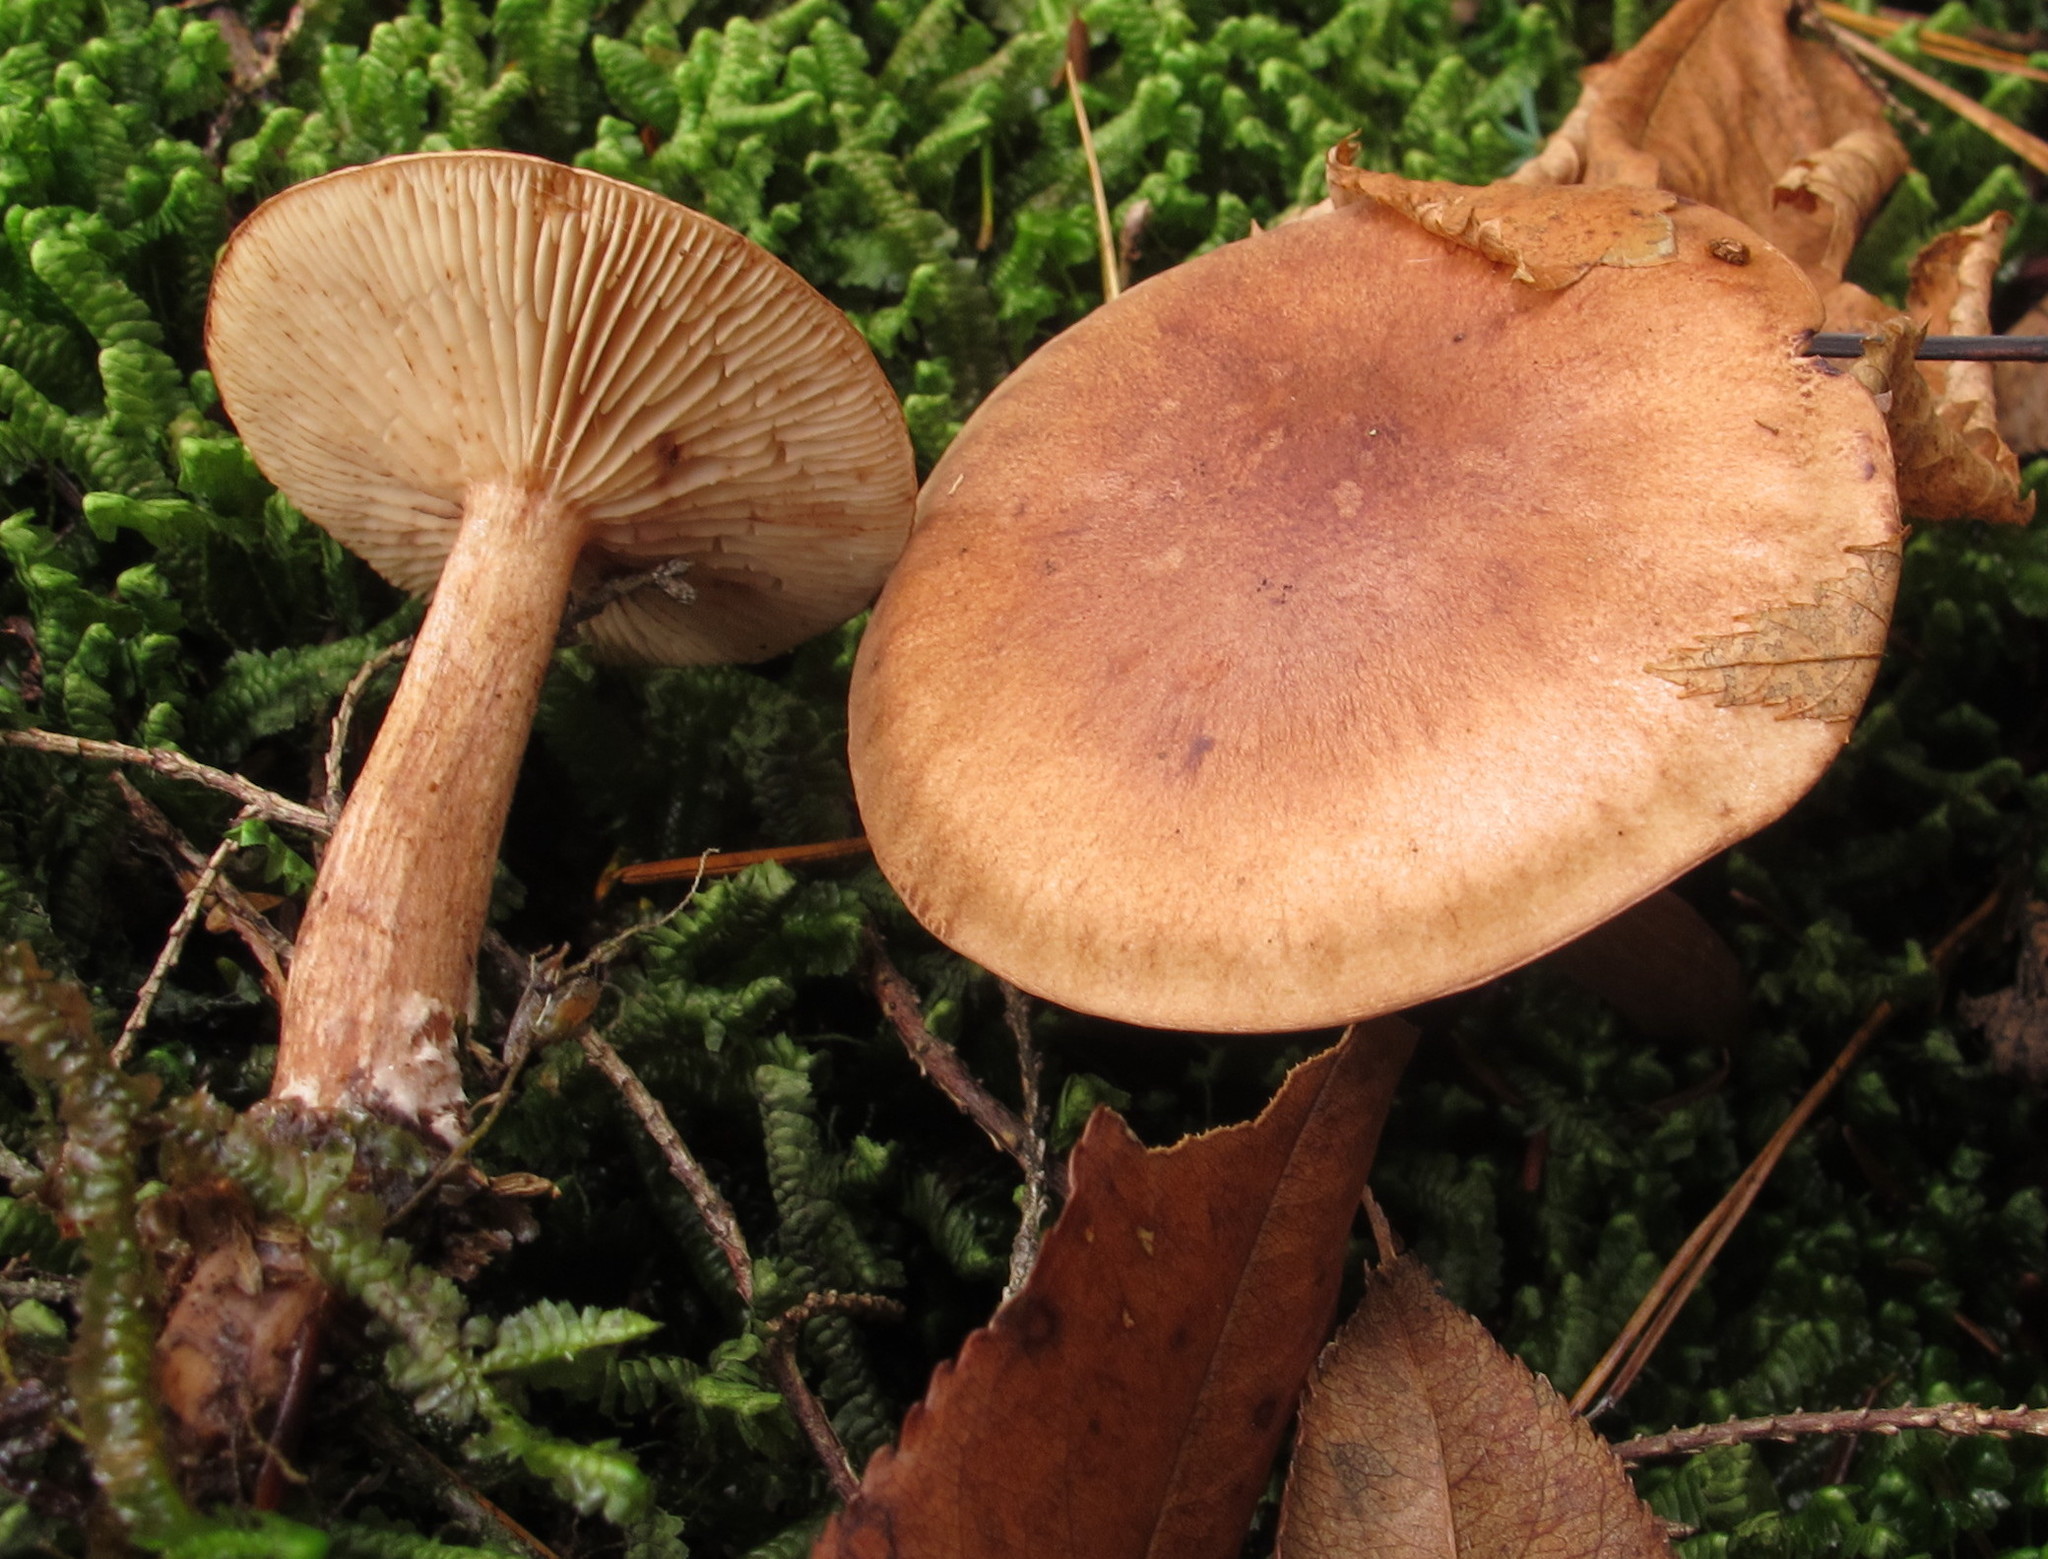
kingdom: Fungi
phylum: Basidiomycota
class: Agaricomycetes
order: Agaricales
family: Tricholomataceae
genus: Tricholoma
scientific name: Tricholoma fulvum
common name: Birch knight
